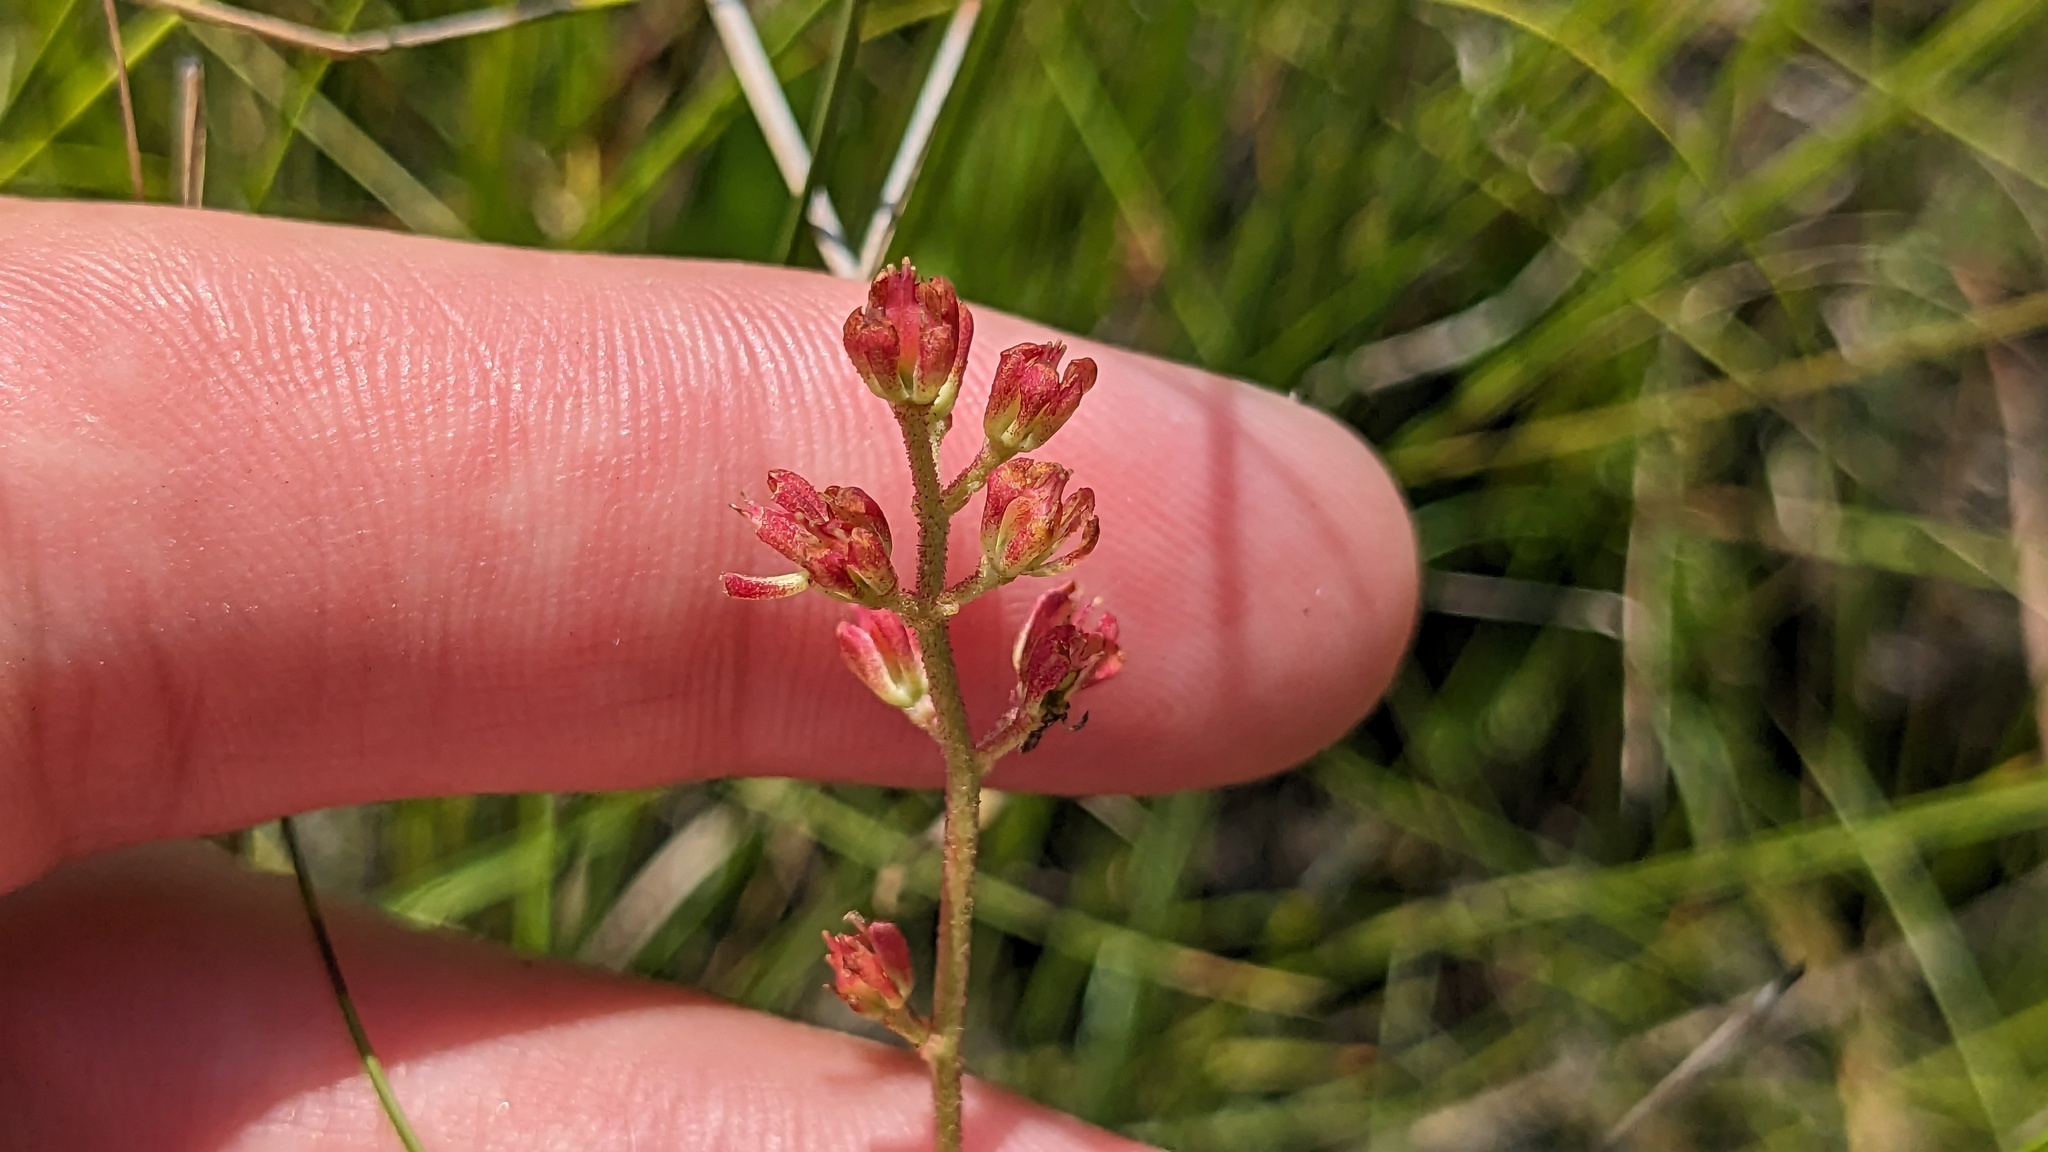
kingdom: Plantae
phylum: Tracheophyta
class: Liliopsida
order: Alismatales
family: Tofieldiaceae
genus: Triantha
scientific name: Triantha racemosa
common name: Coastal false asphodel
